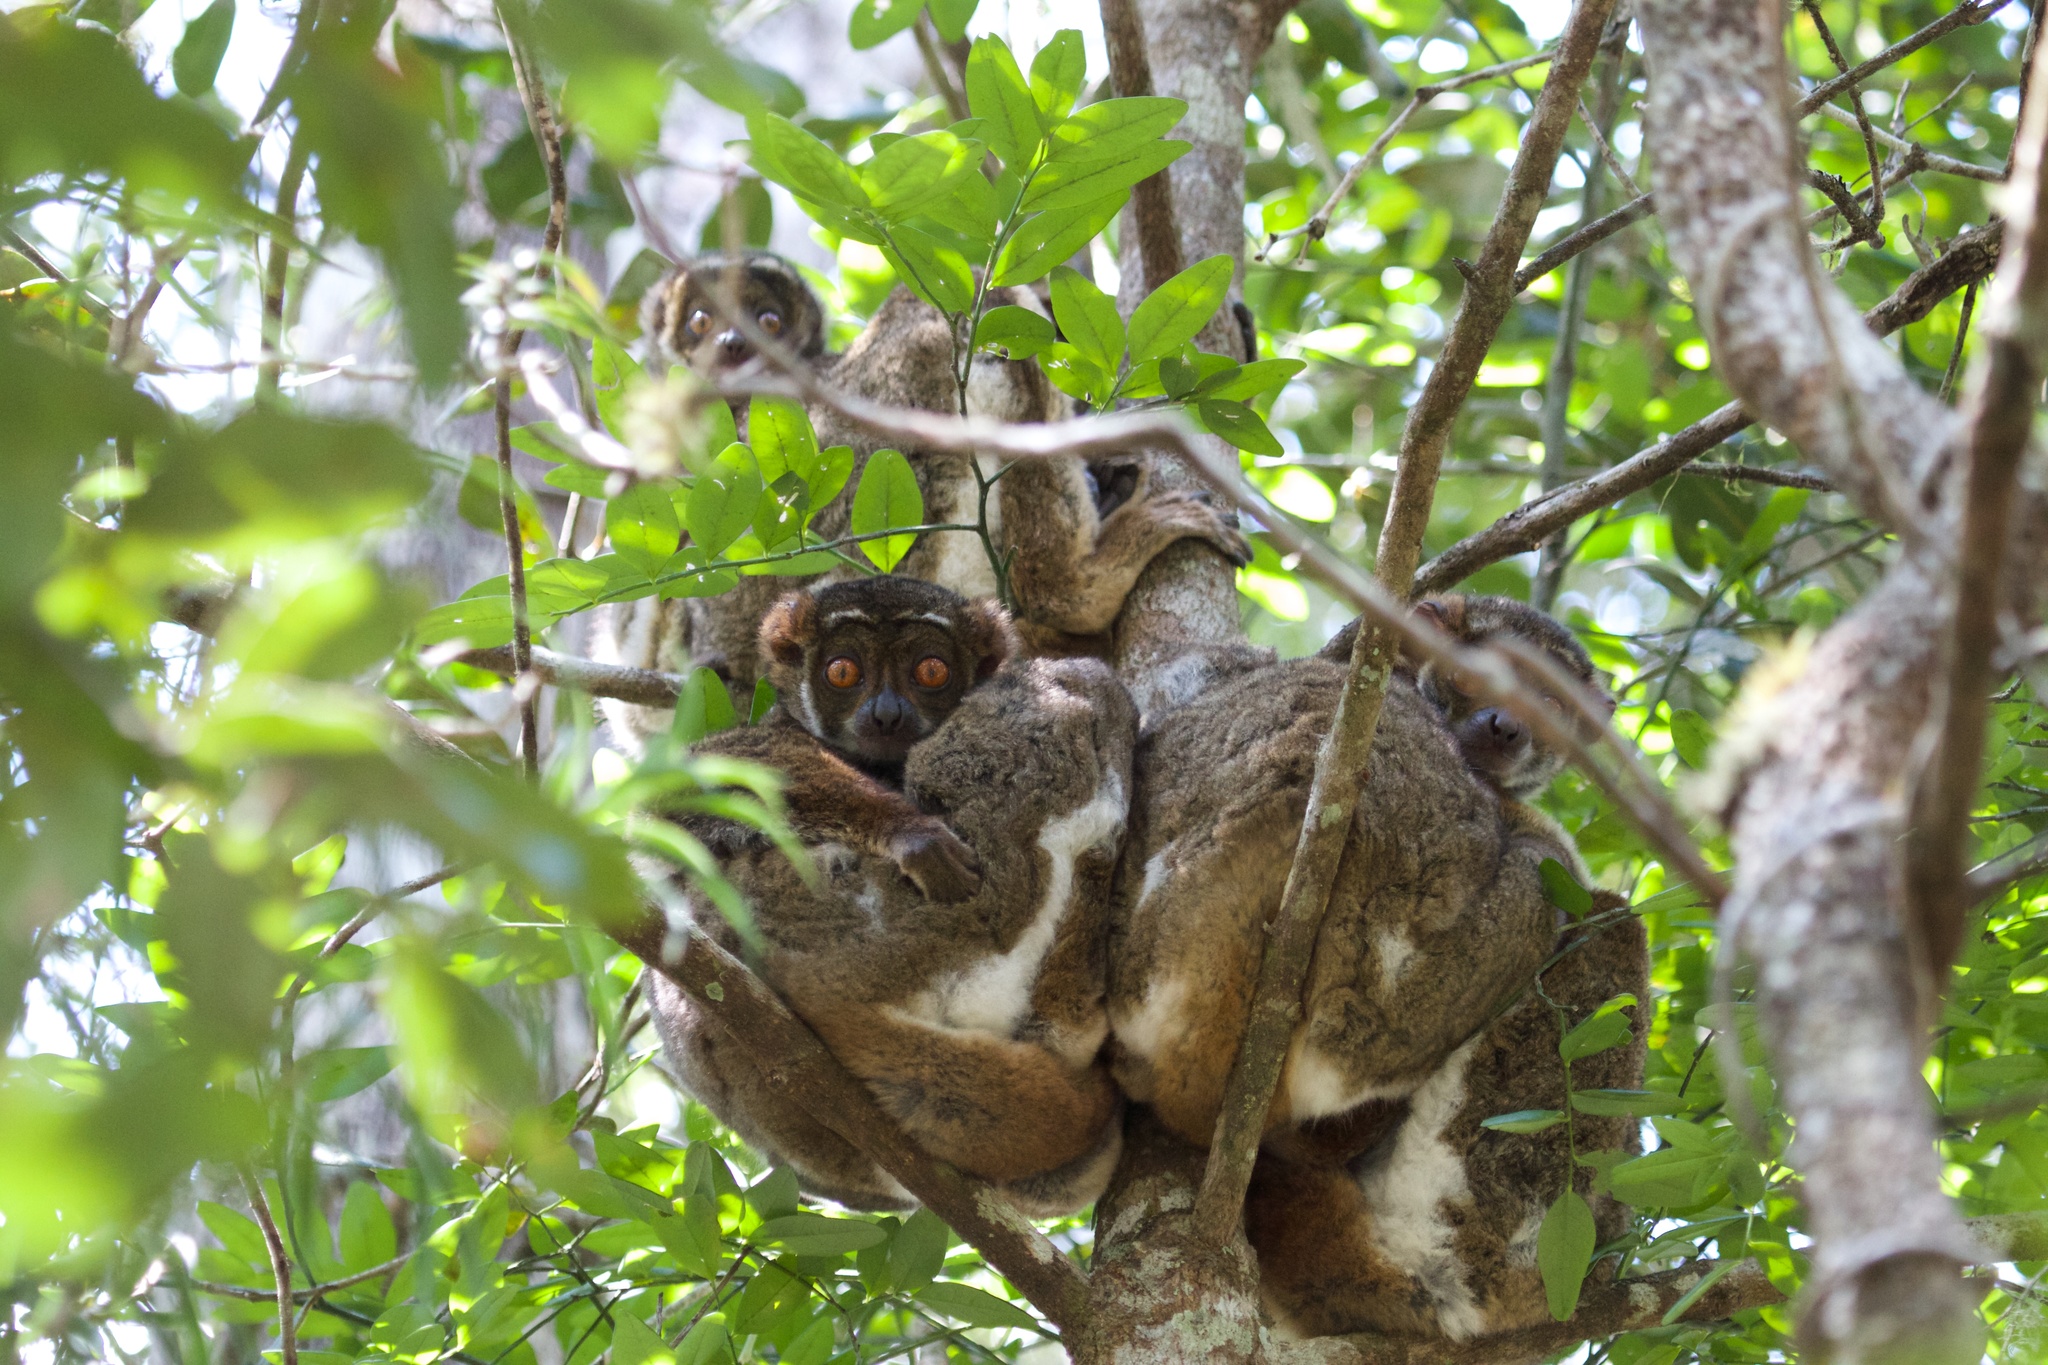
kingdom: Animalia
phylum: Chordata
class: Mammalia
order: Primates
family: Indriidae
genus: Avahi
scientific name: Avahi laniger
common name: Eastern woolly lemur
